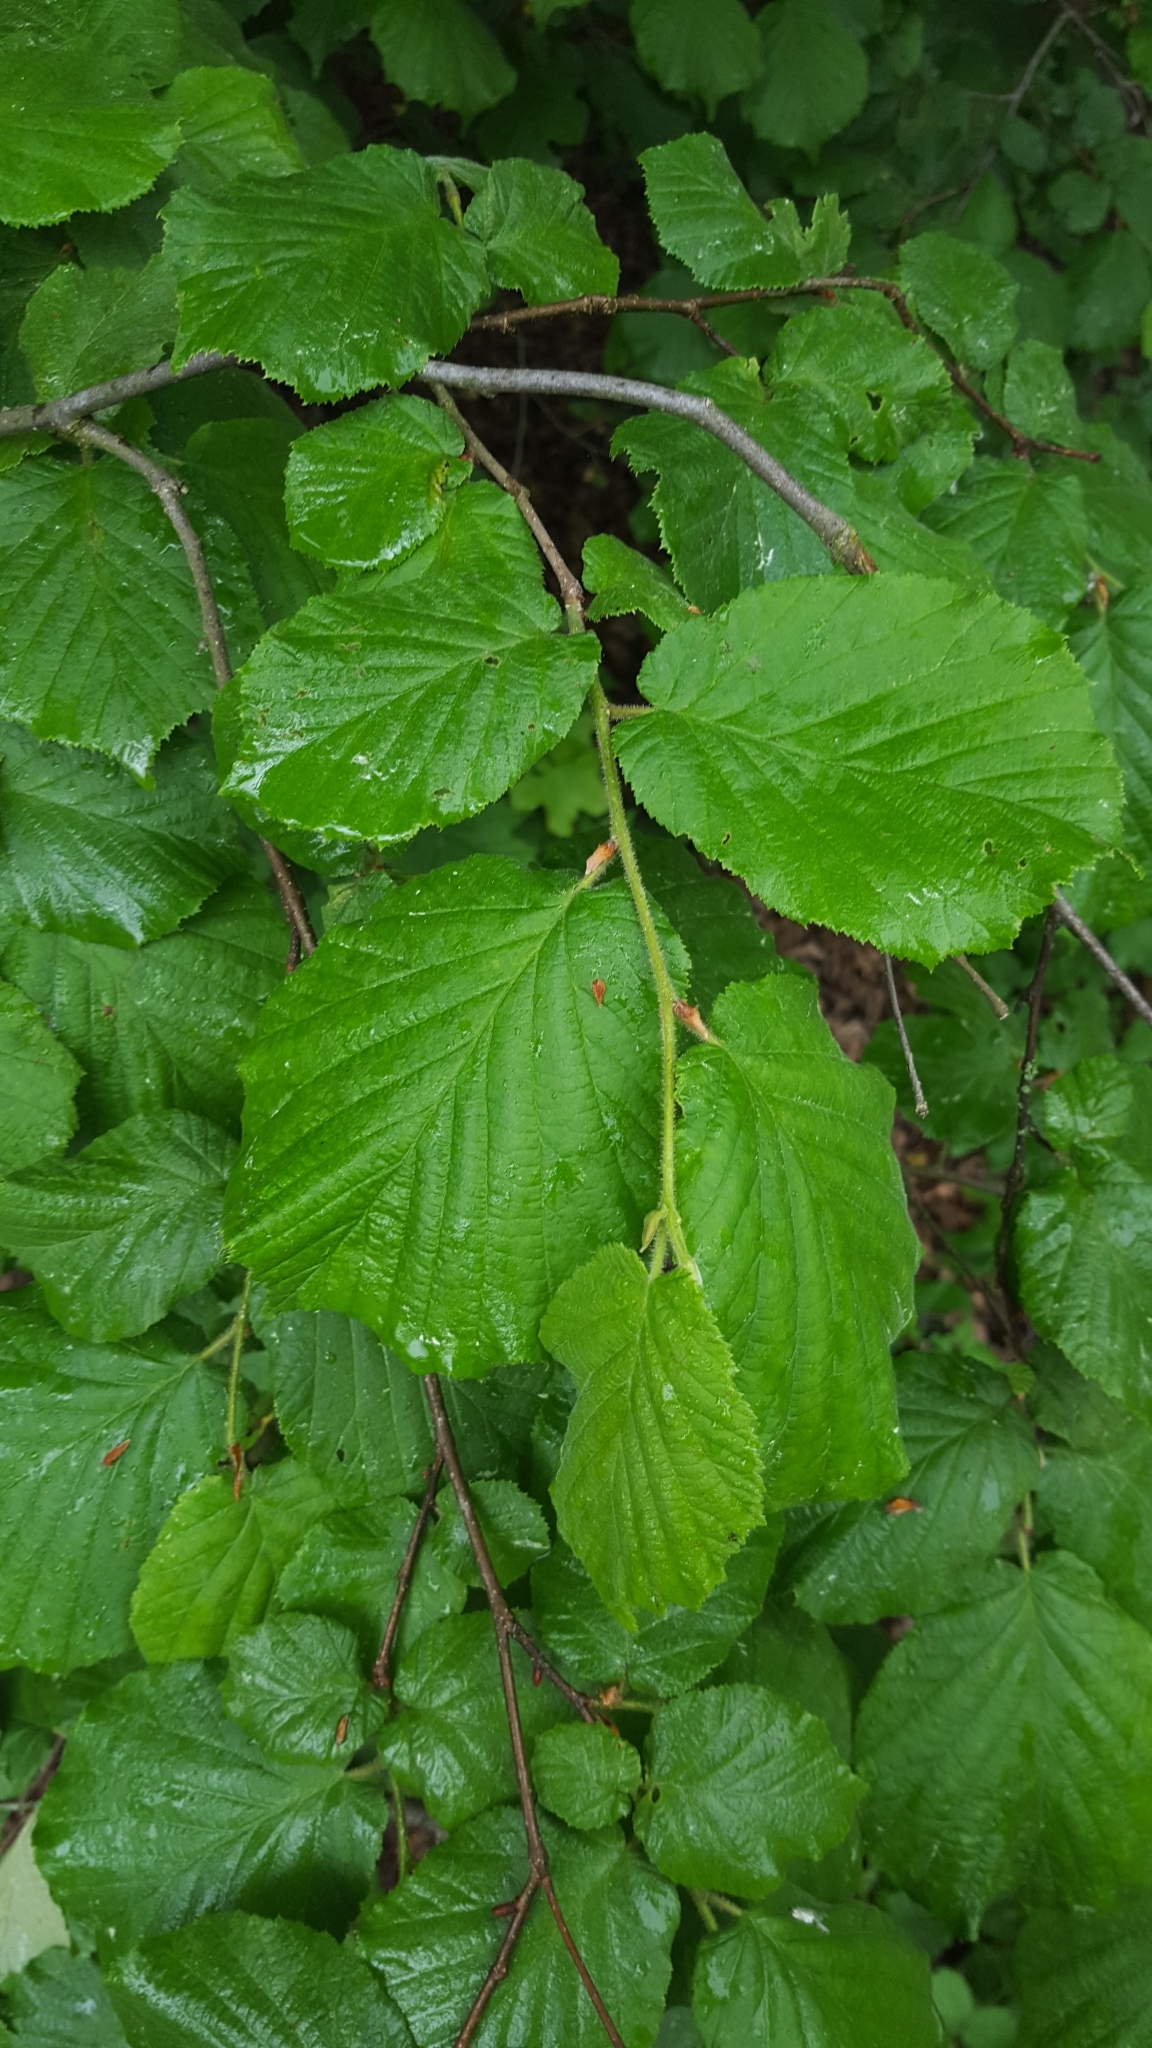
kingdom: Plantae
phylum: Tracheophyta
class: Magnoliopsida
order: Fagales
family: Betulaceae
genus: Corylus
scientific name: Corylus avellana
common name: European hazel
